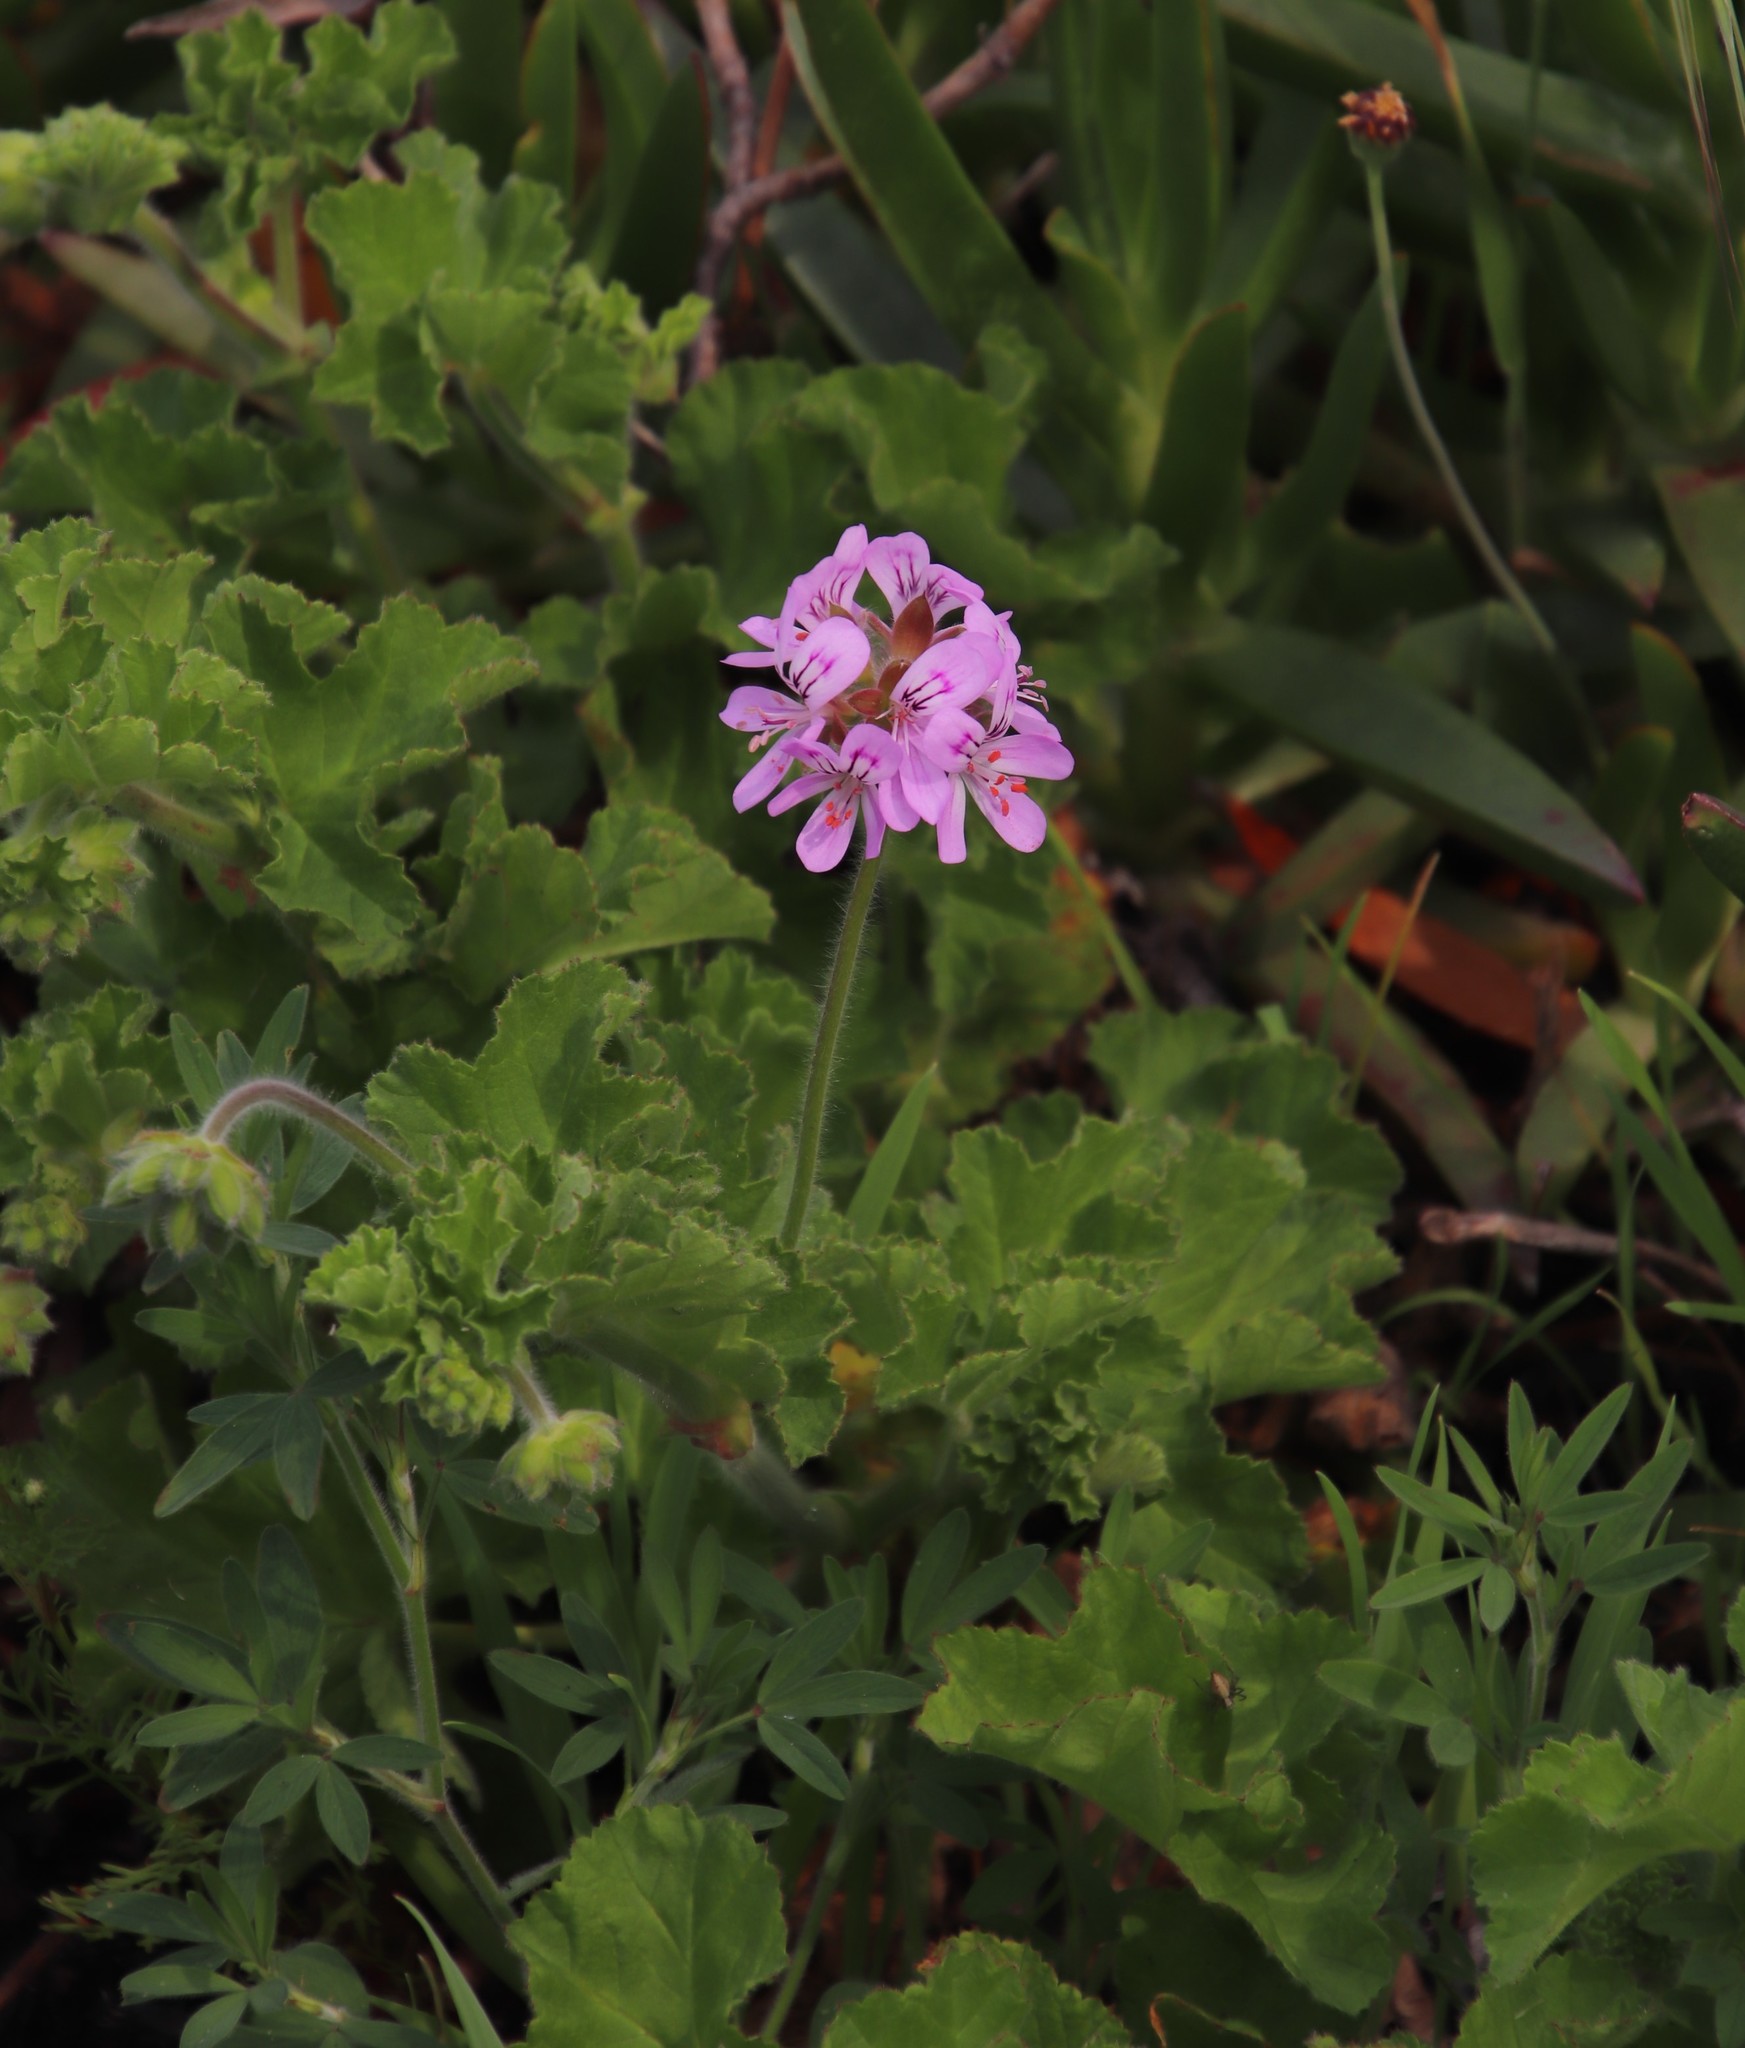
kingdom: Plantae
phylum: Tracheophyta
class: Magnoliopsida
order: Geraniales
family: Geraniaceae
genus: Pelargonium
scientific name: Pelargonium capitatum
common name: Rose scented geranium
